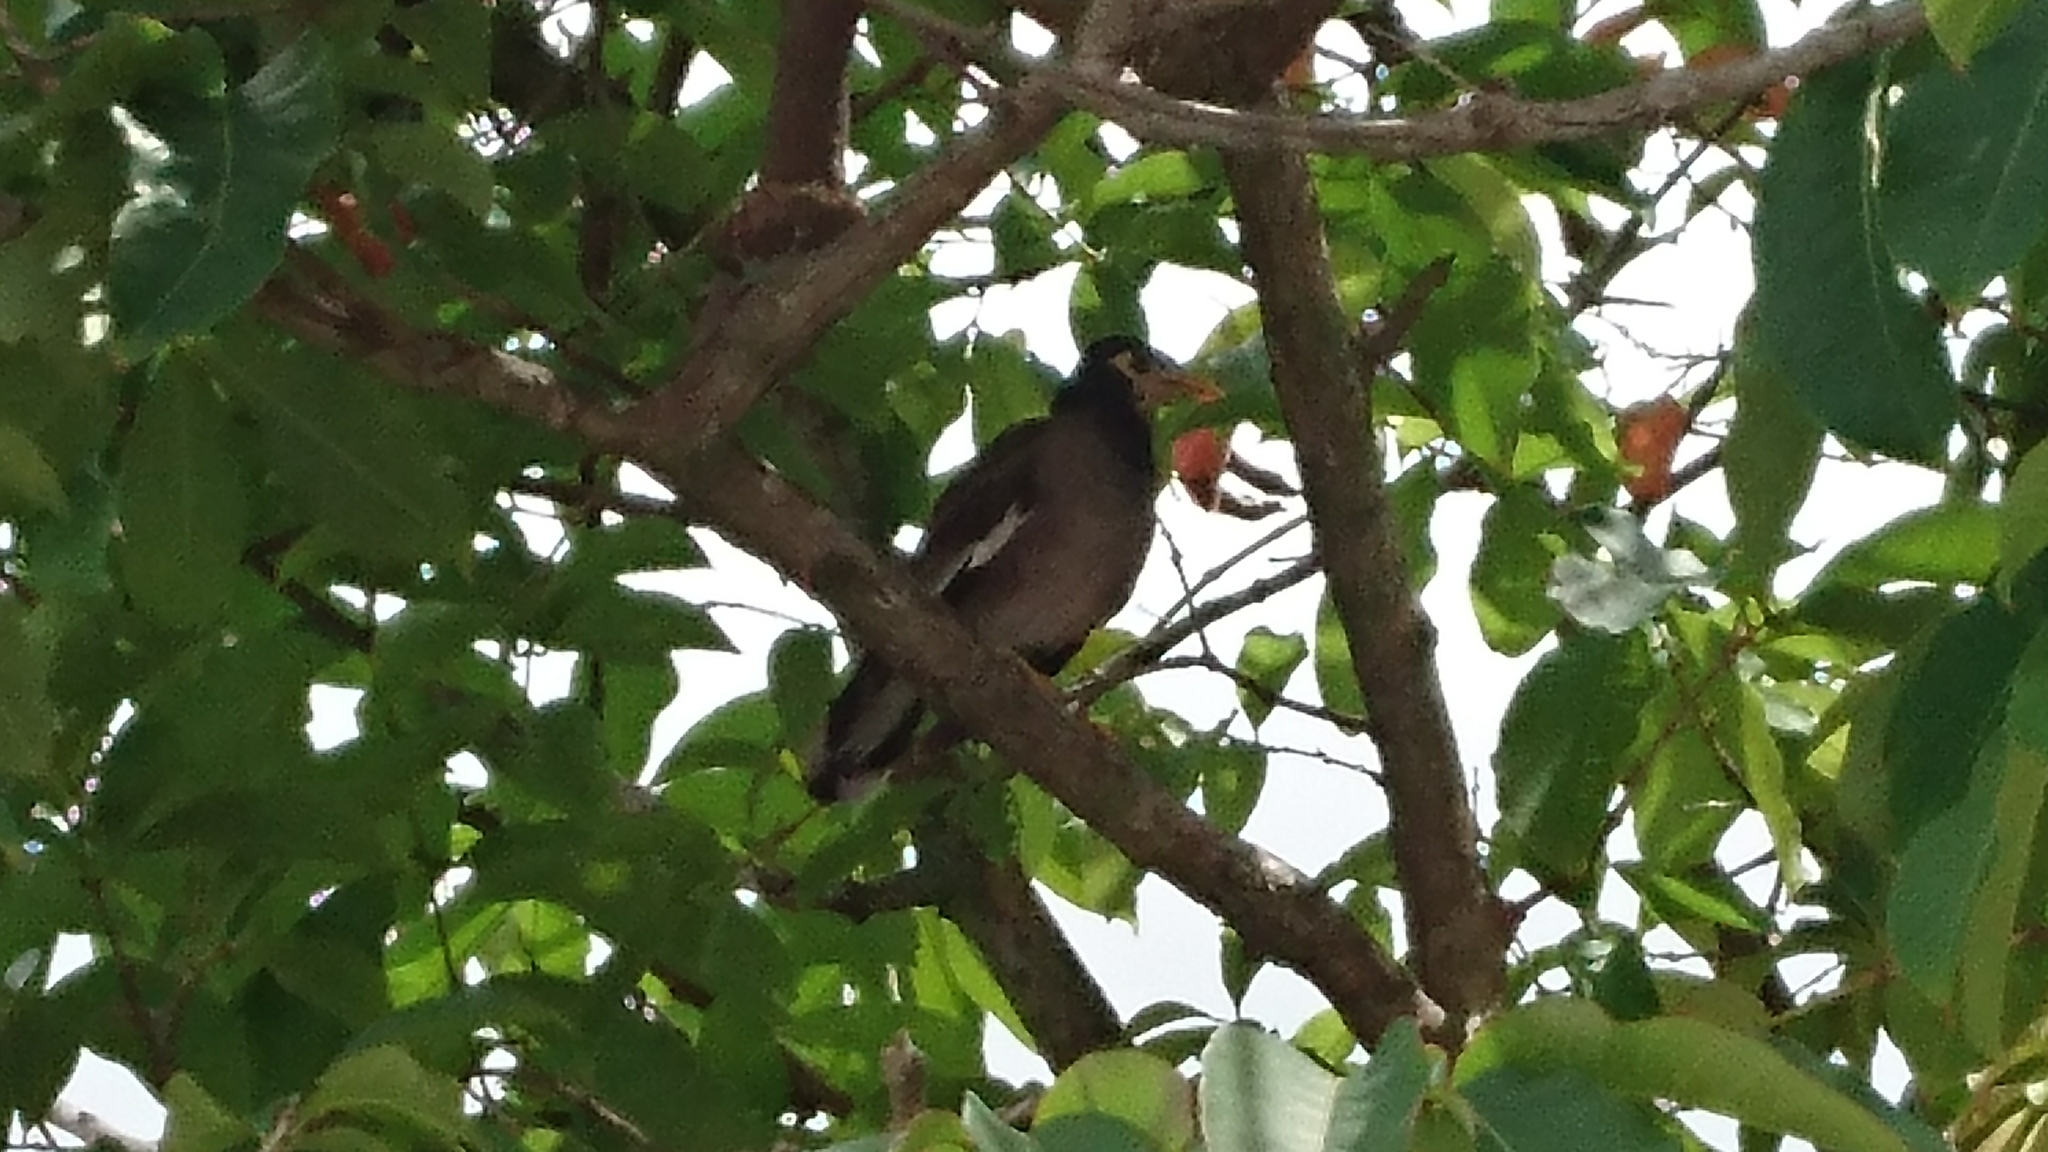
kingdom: Animalia
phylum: Chordata
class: Aves
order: Passeriformes
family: Sturnidae
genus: Acridotheres
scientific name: Acridotheres tristis
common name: Common myna
